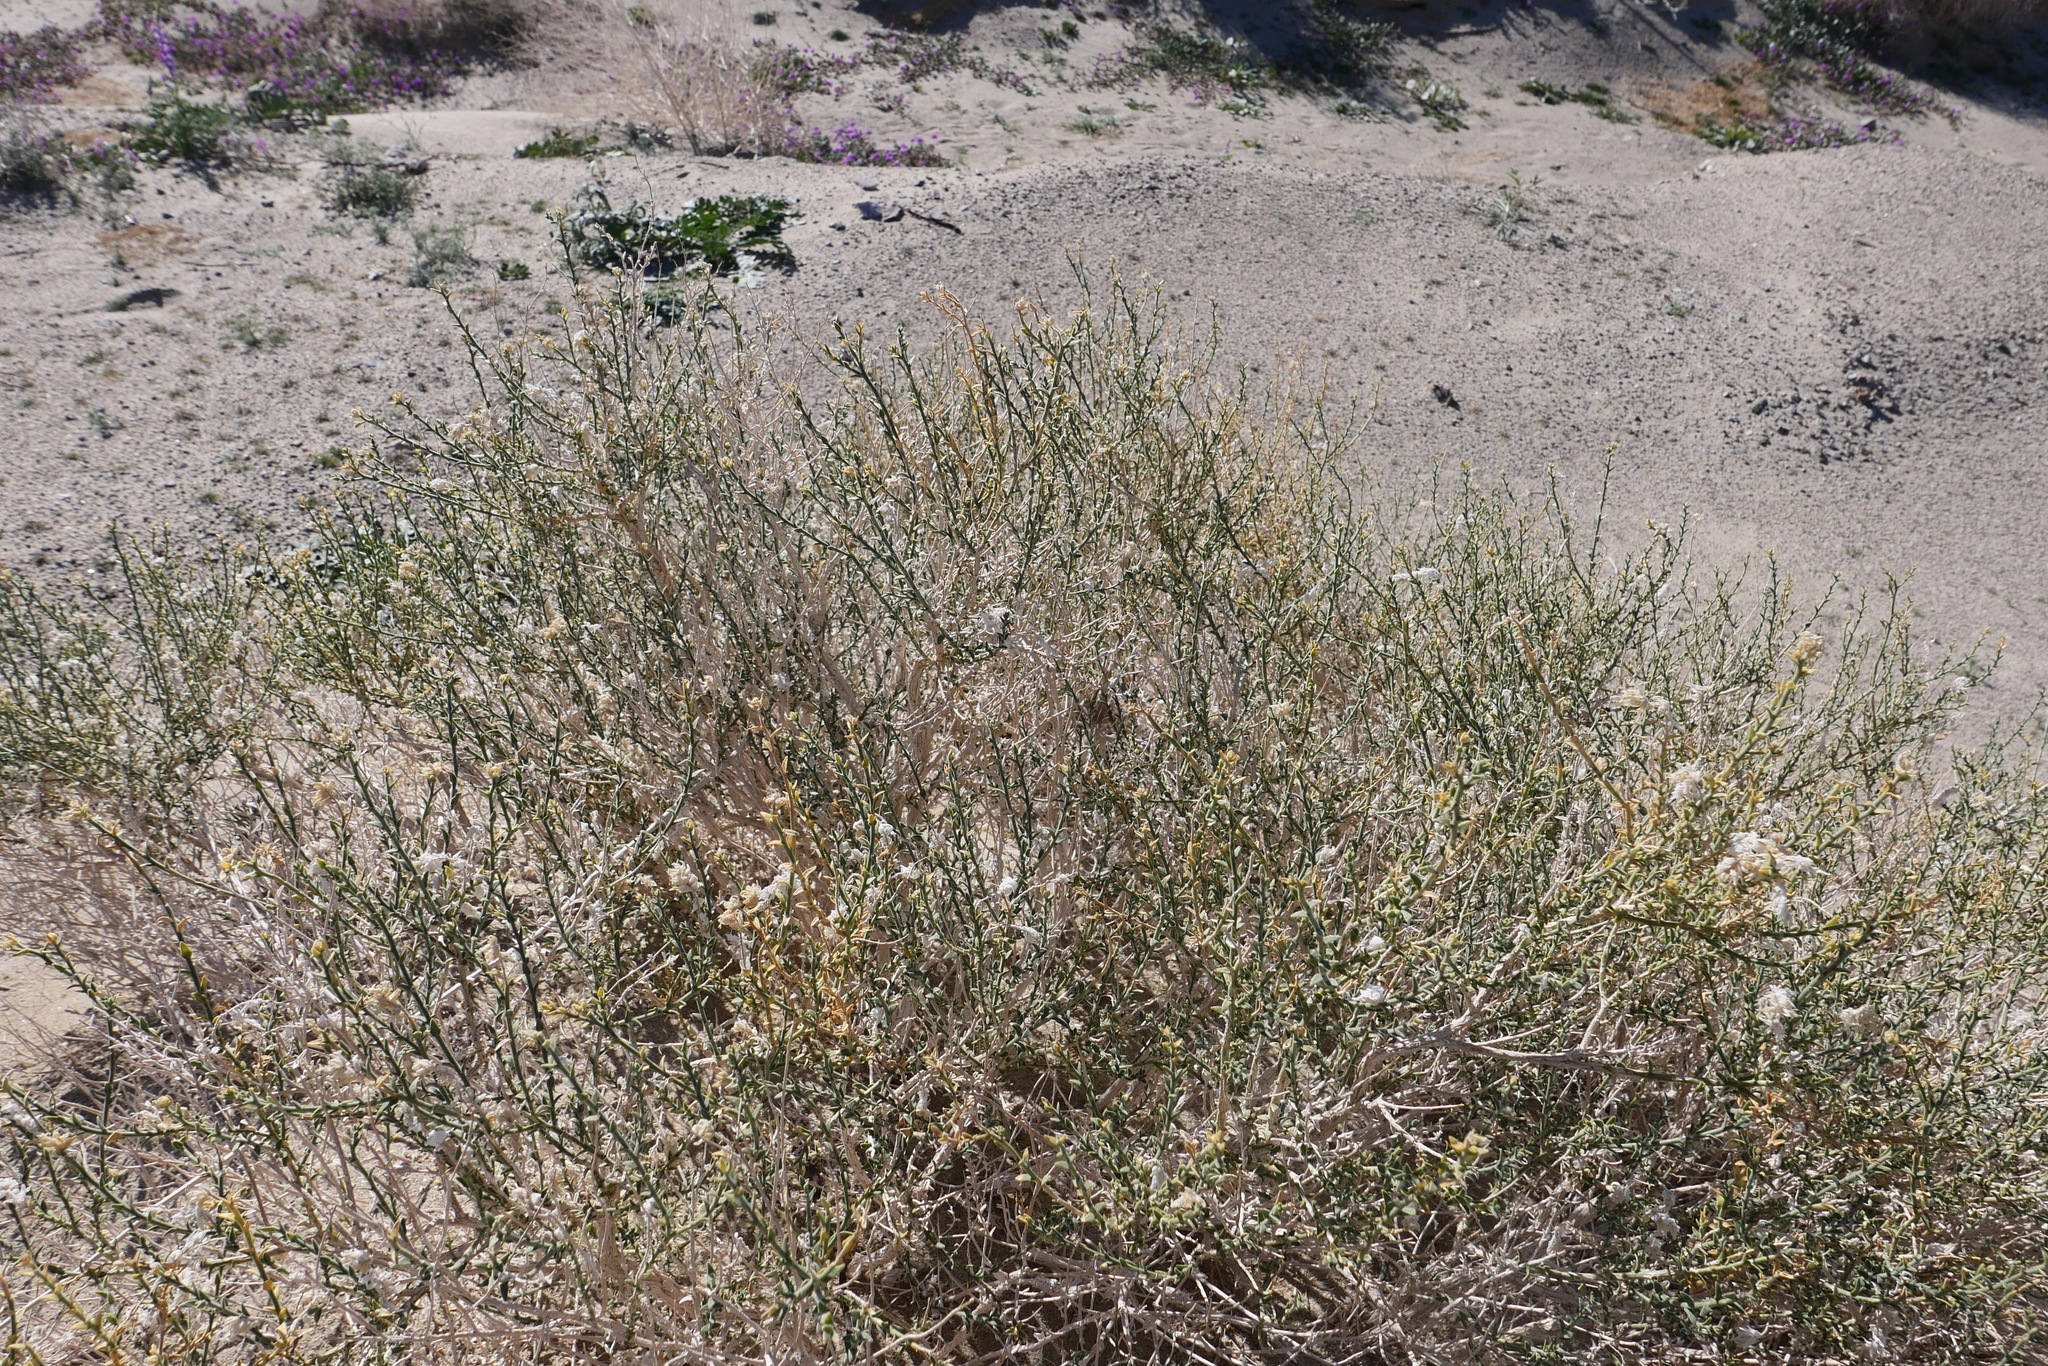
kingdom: Plantae
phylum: Tracheophyta
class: Magnoliopsida
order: Cornales
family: Loasaceae
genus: Petalonyx
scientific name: Petalonyx thurberi
